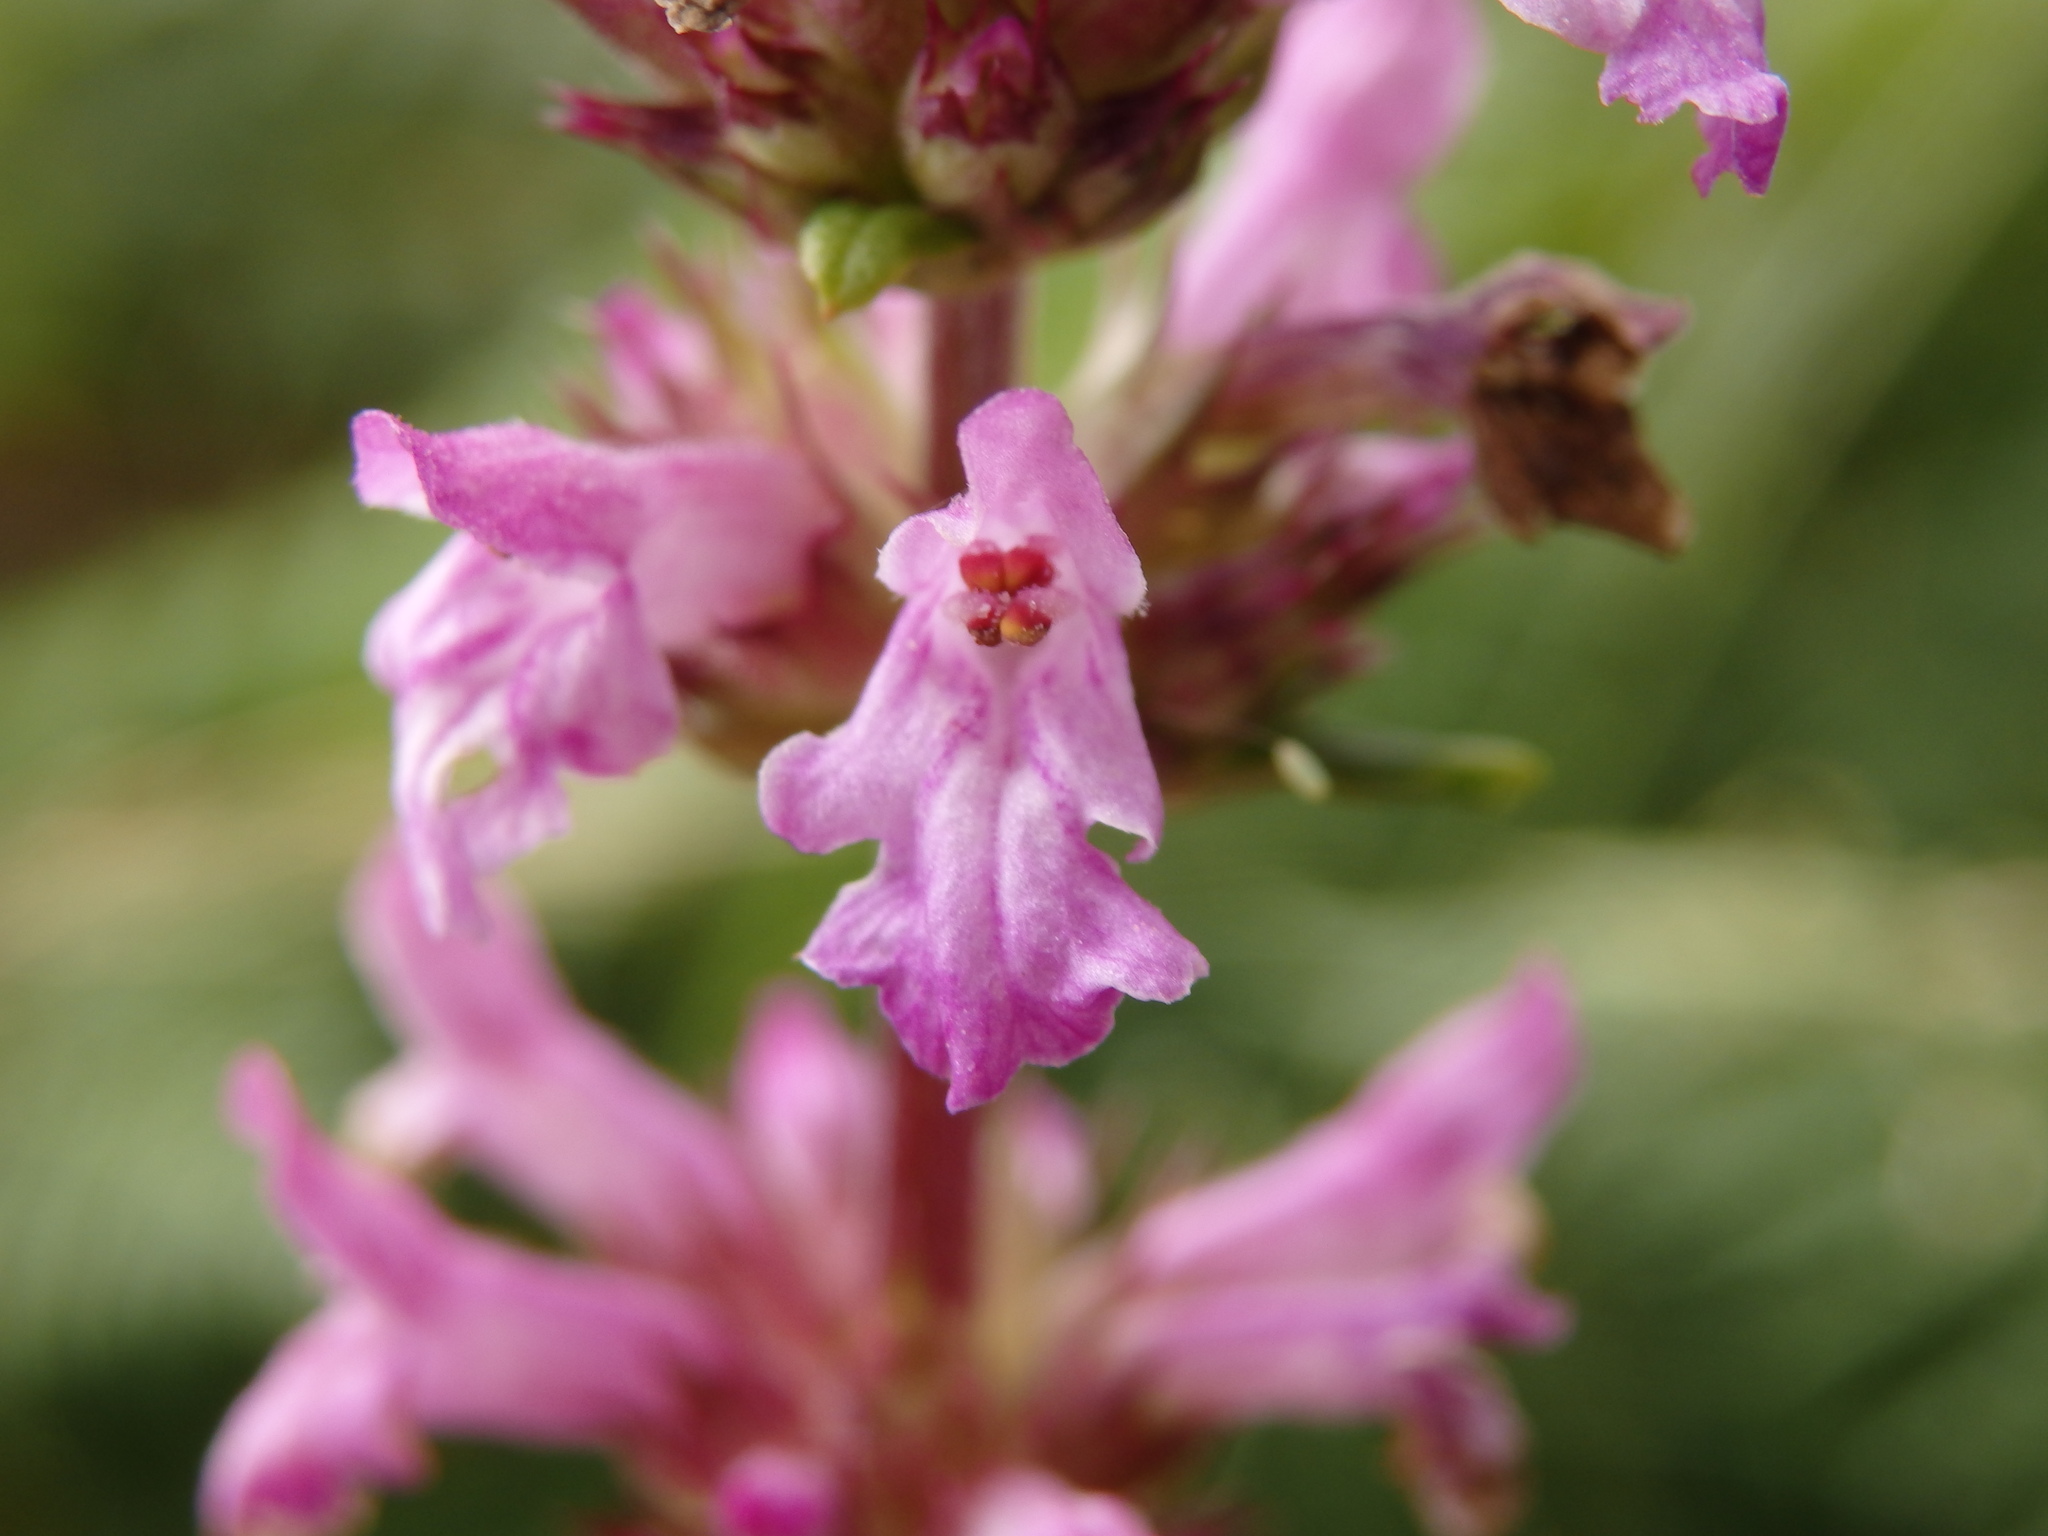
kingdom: Plantae
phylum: Tracheophyta
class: Magnoliopsida
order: Lamiales
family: Lamiaceae
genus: Betonica
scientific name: Betonica officinalis
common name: Bishop's-wort
